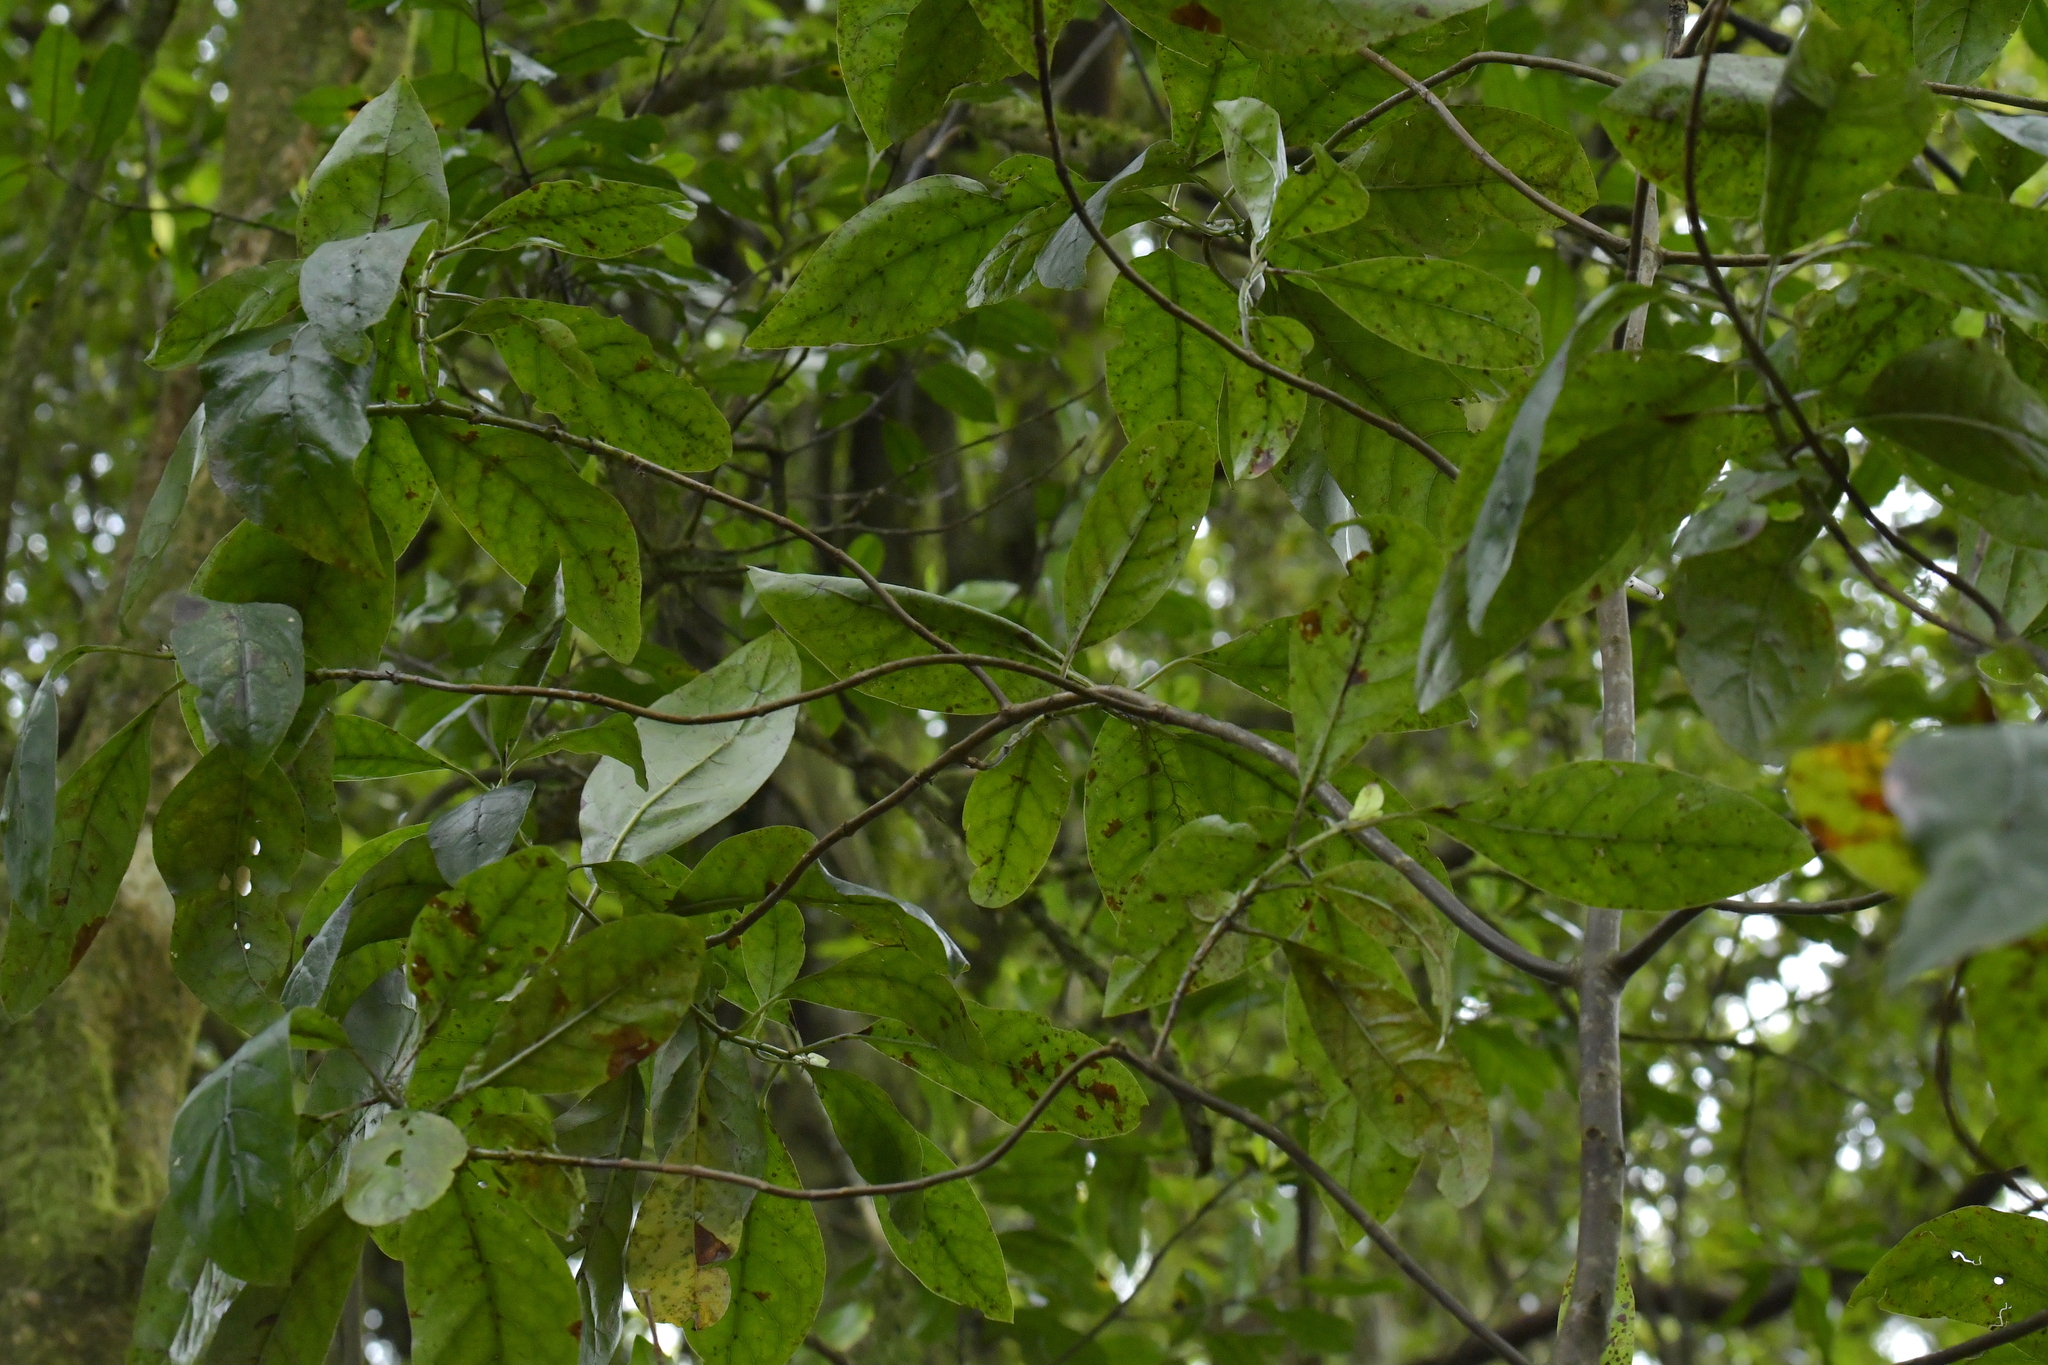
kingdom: Plantae
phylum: Tracheophyta
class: Magnoliopsida
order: Gentianales
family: Rubiaceae
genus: Coprosma
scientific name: Coprosma autumnalis
